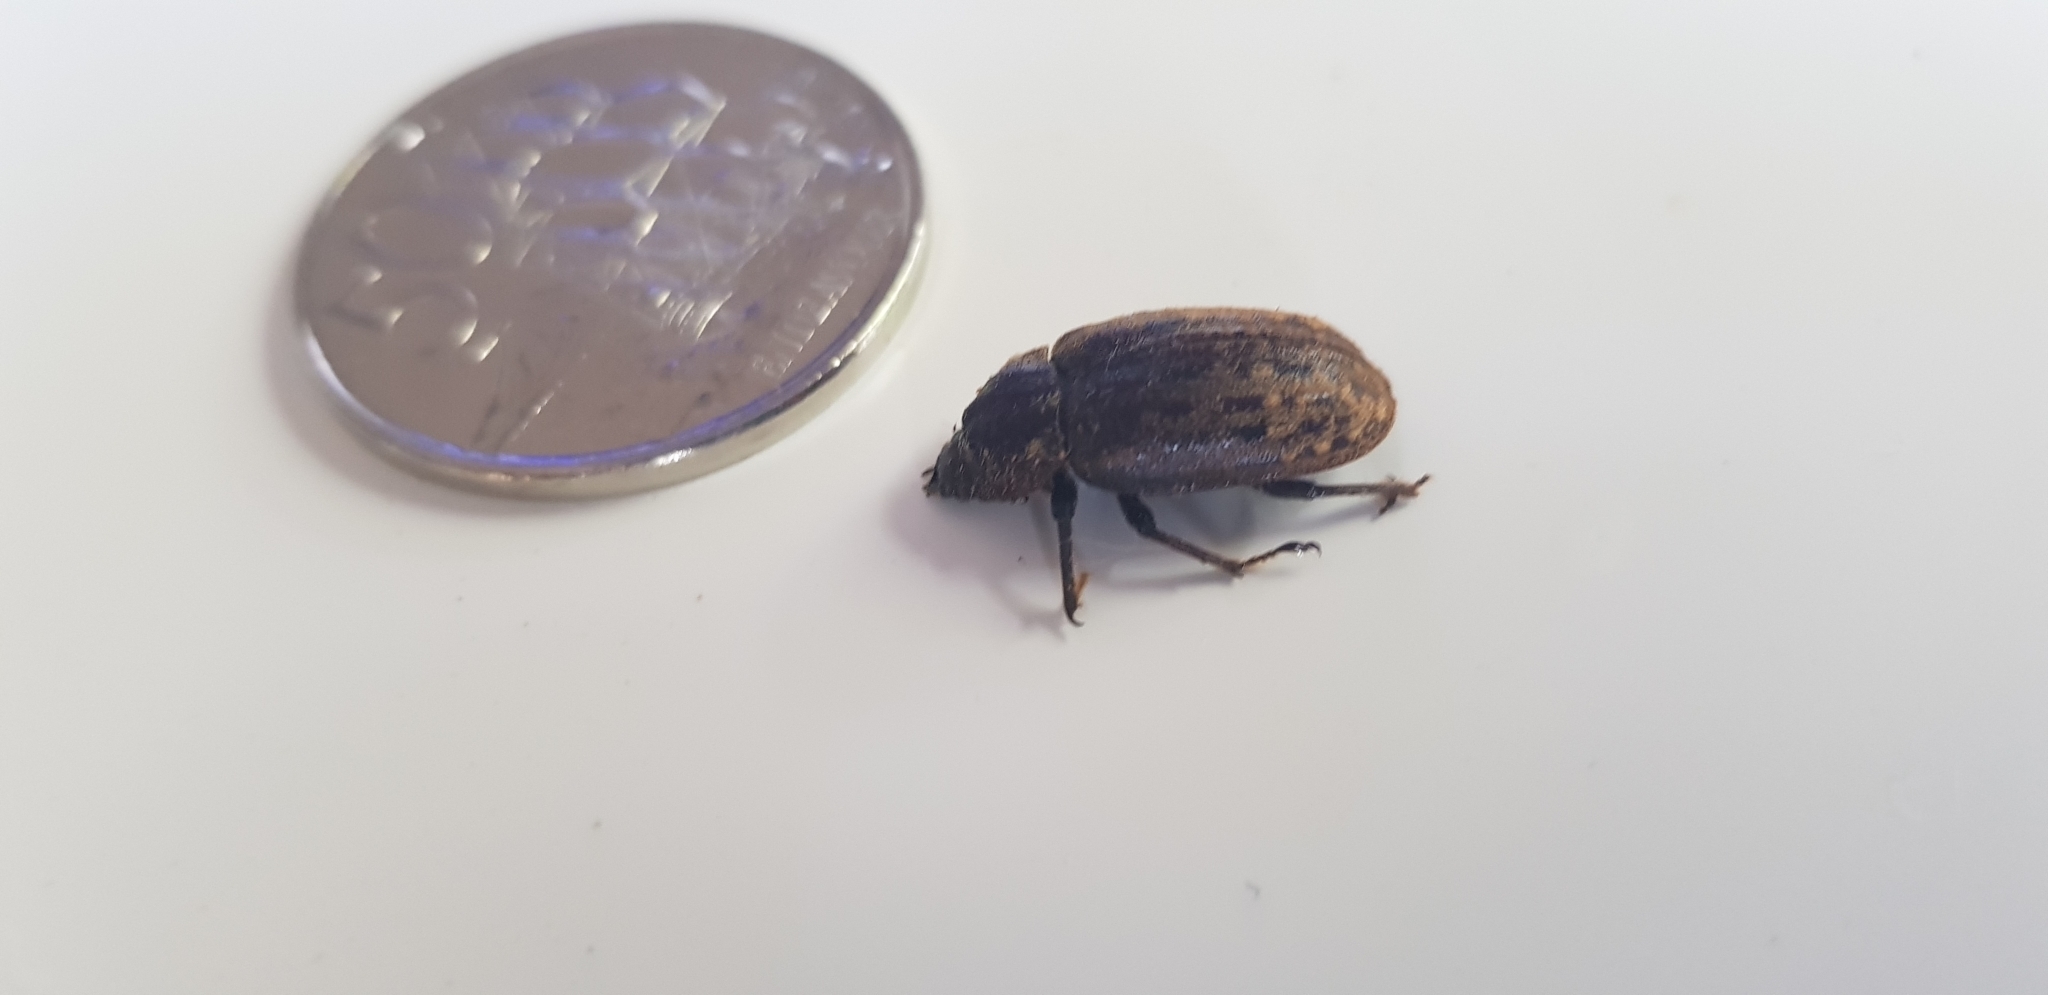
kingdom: Animalia
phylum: Arthropoda
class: Insecta
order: Coleoptera
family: Lucanidae
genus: Mitophyllus
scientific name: Mitophyllus parrianus
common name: Parry's stag beetle
